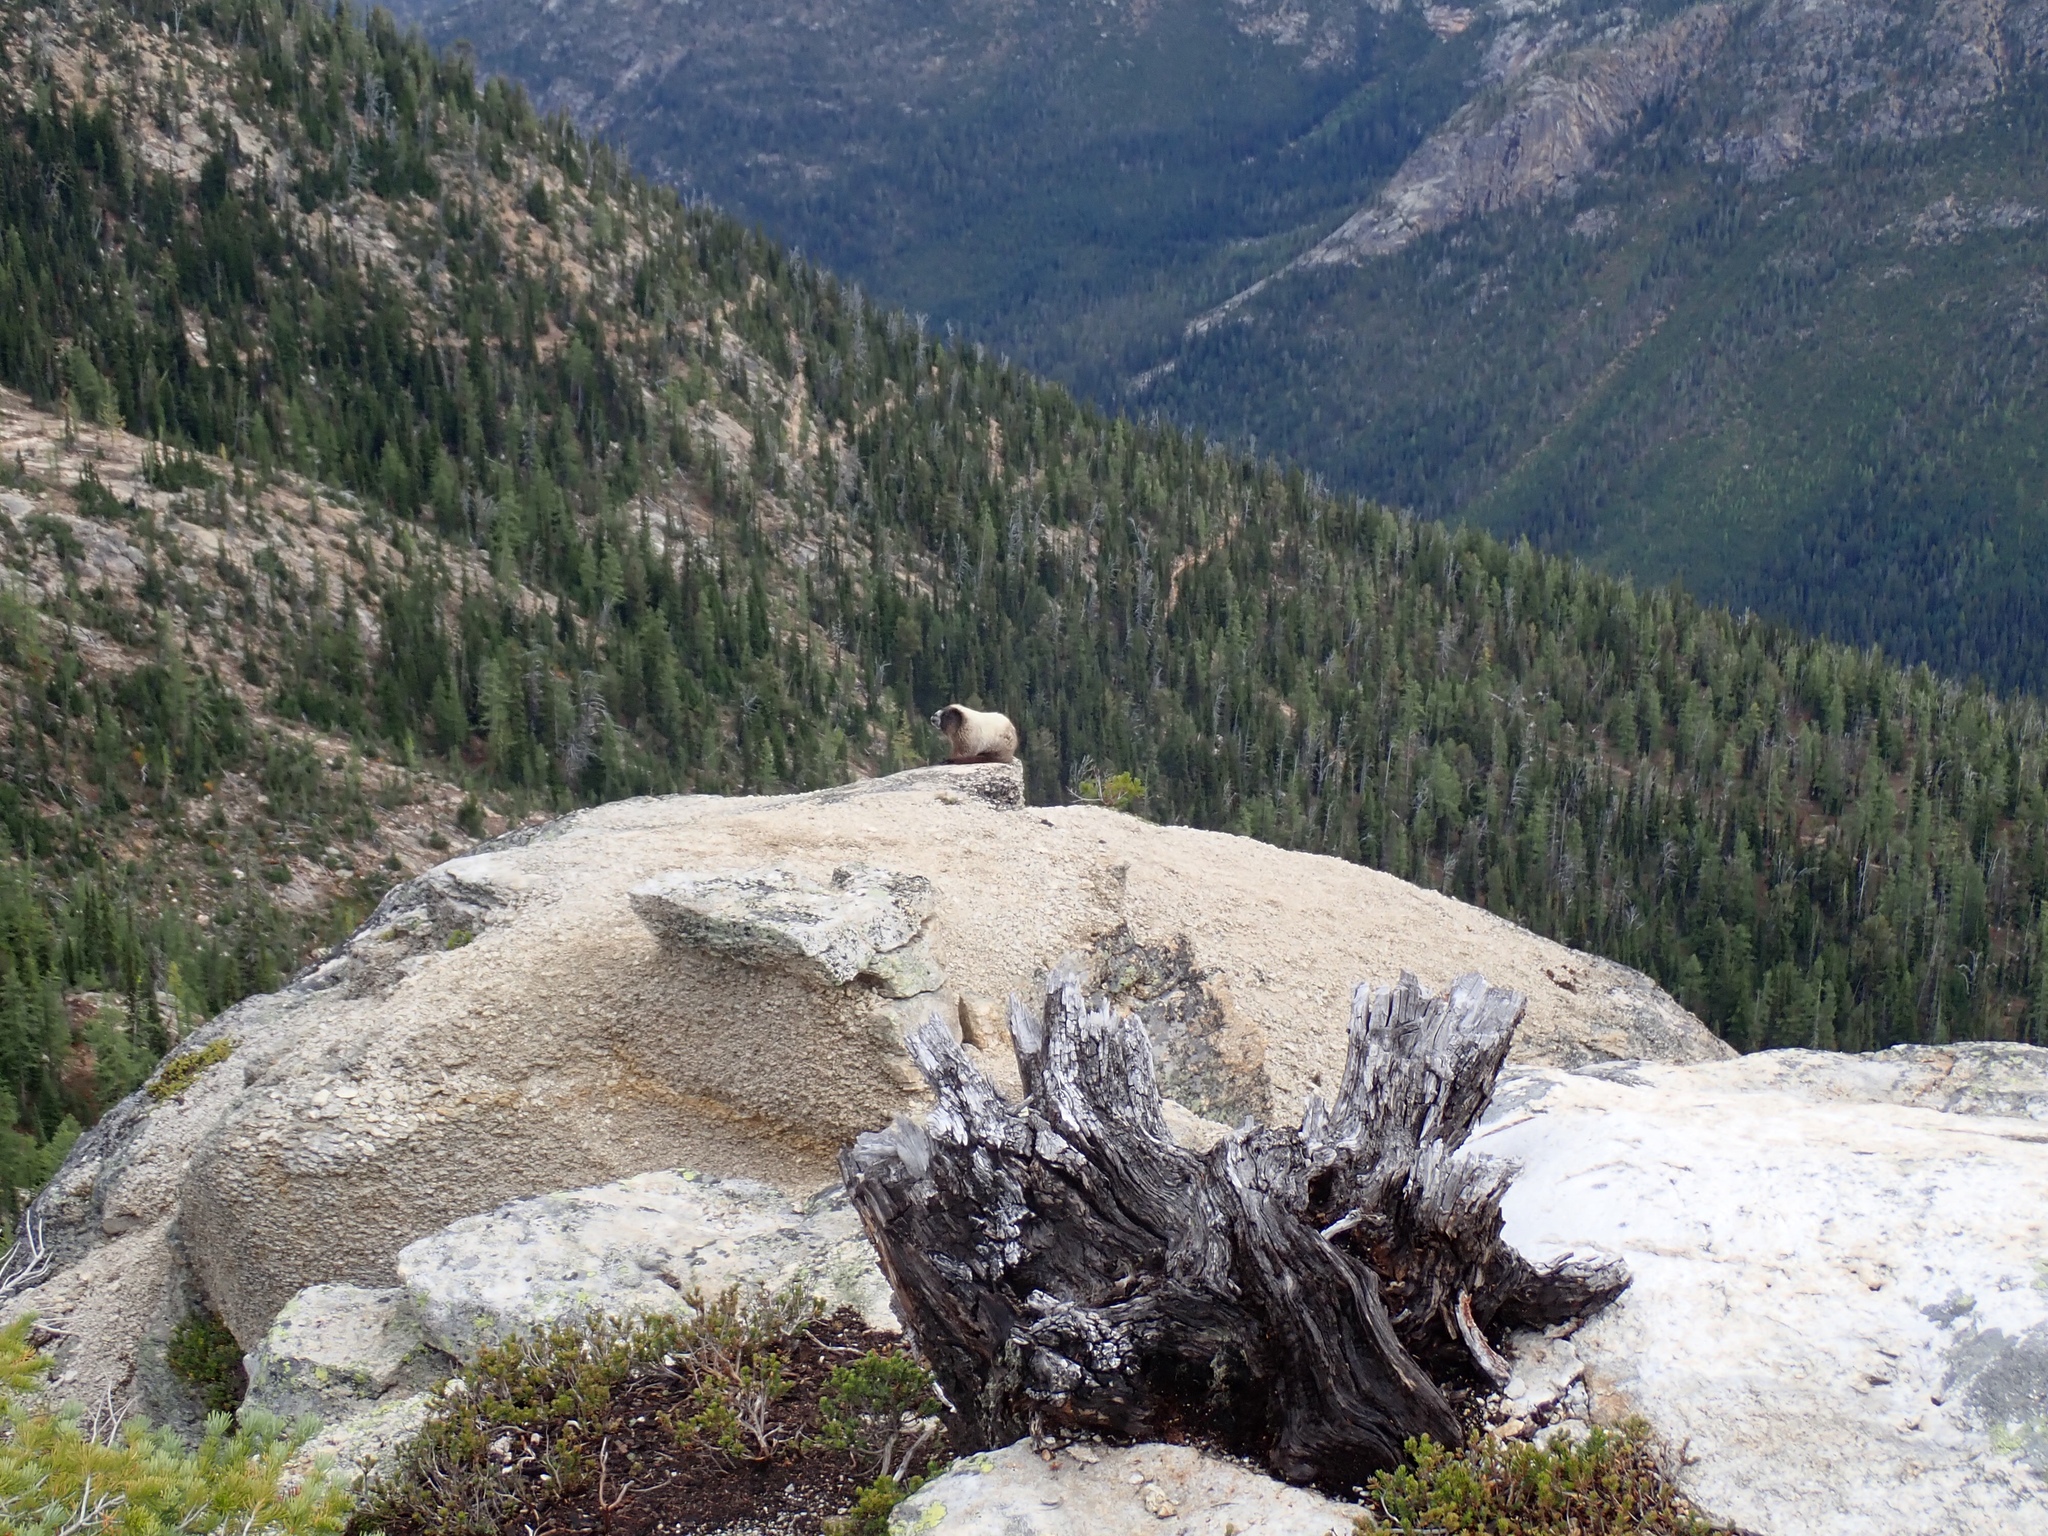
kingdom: Animalia
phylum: Chordata
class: Mammalia
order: Rodentia
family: Sciuridae
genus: Marmota
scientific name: Marmota caligata
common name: Hoary marmot
